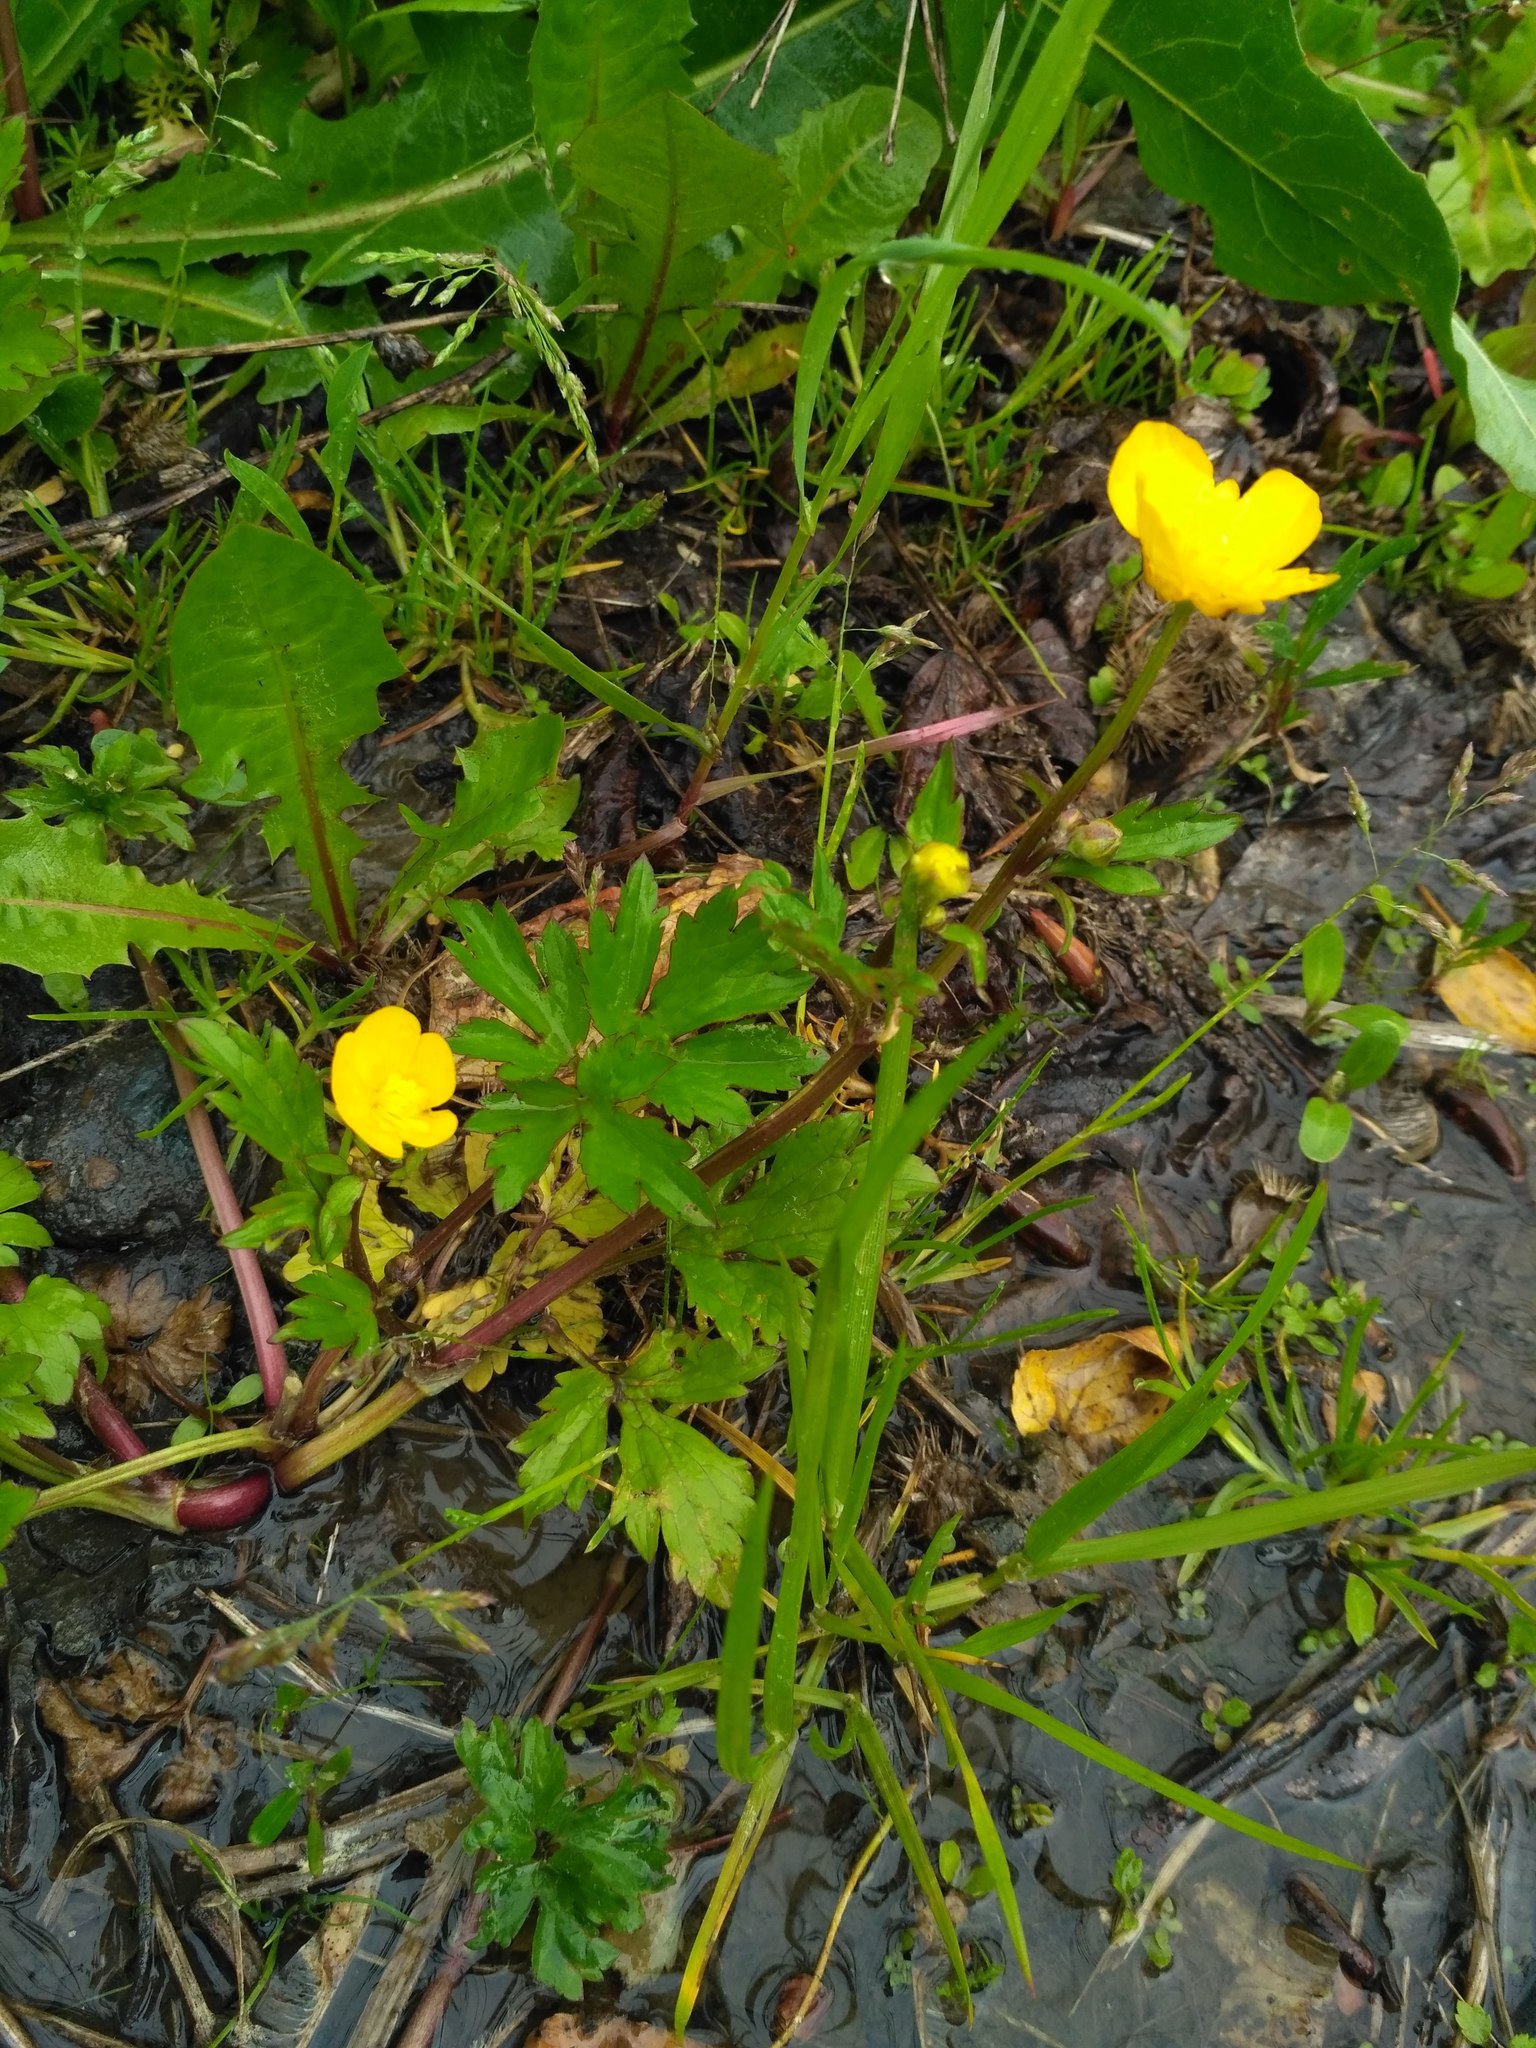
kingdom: Plantae
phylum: Tracheophyta
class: Magnoliopsida
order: Ranunculales
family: Ranunculaceae
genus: Ranunculus
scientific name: Ranunculus repens
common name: Creeping buttercup
